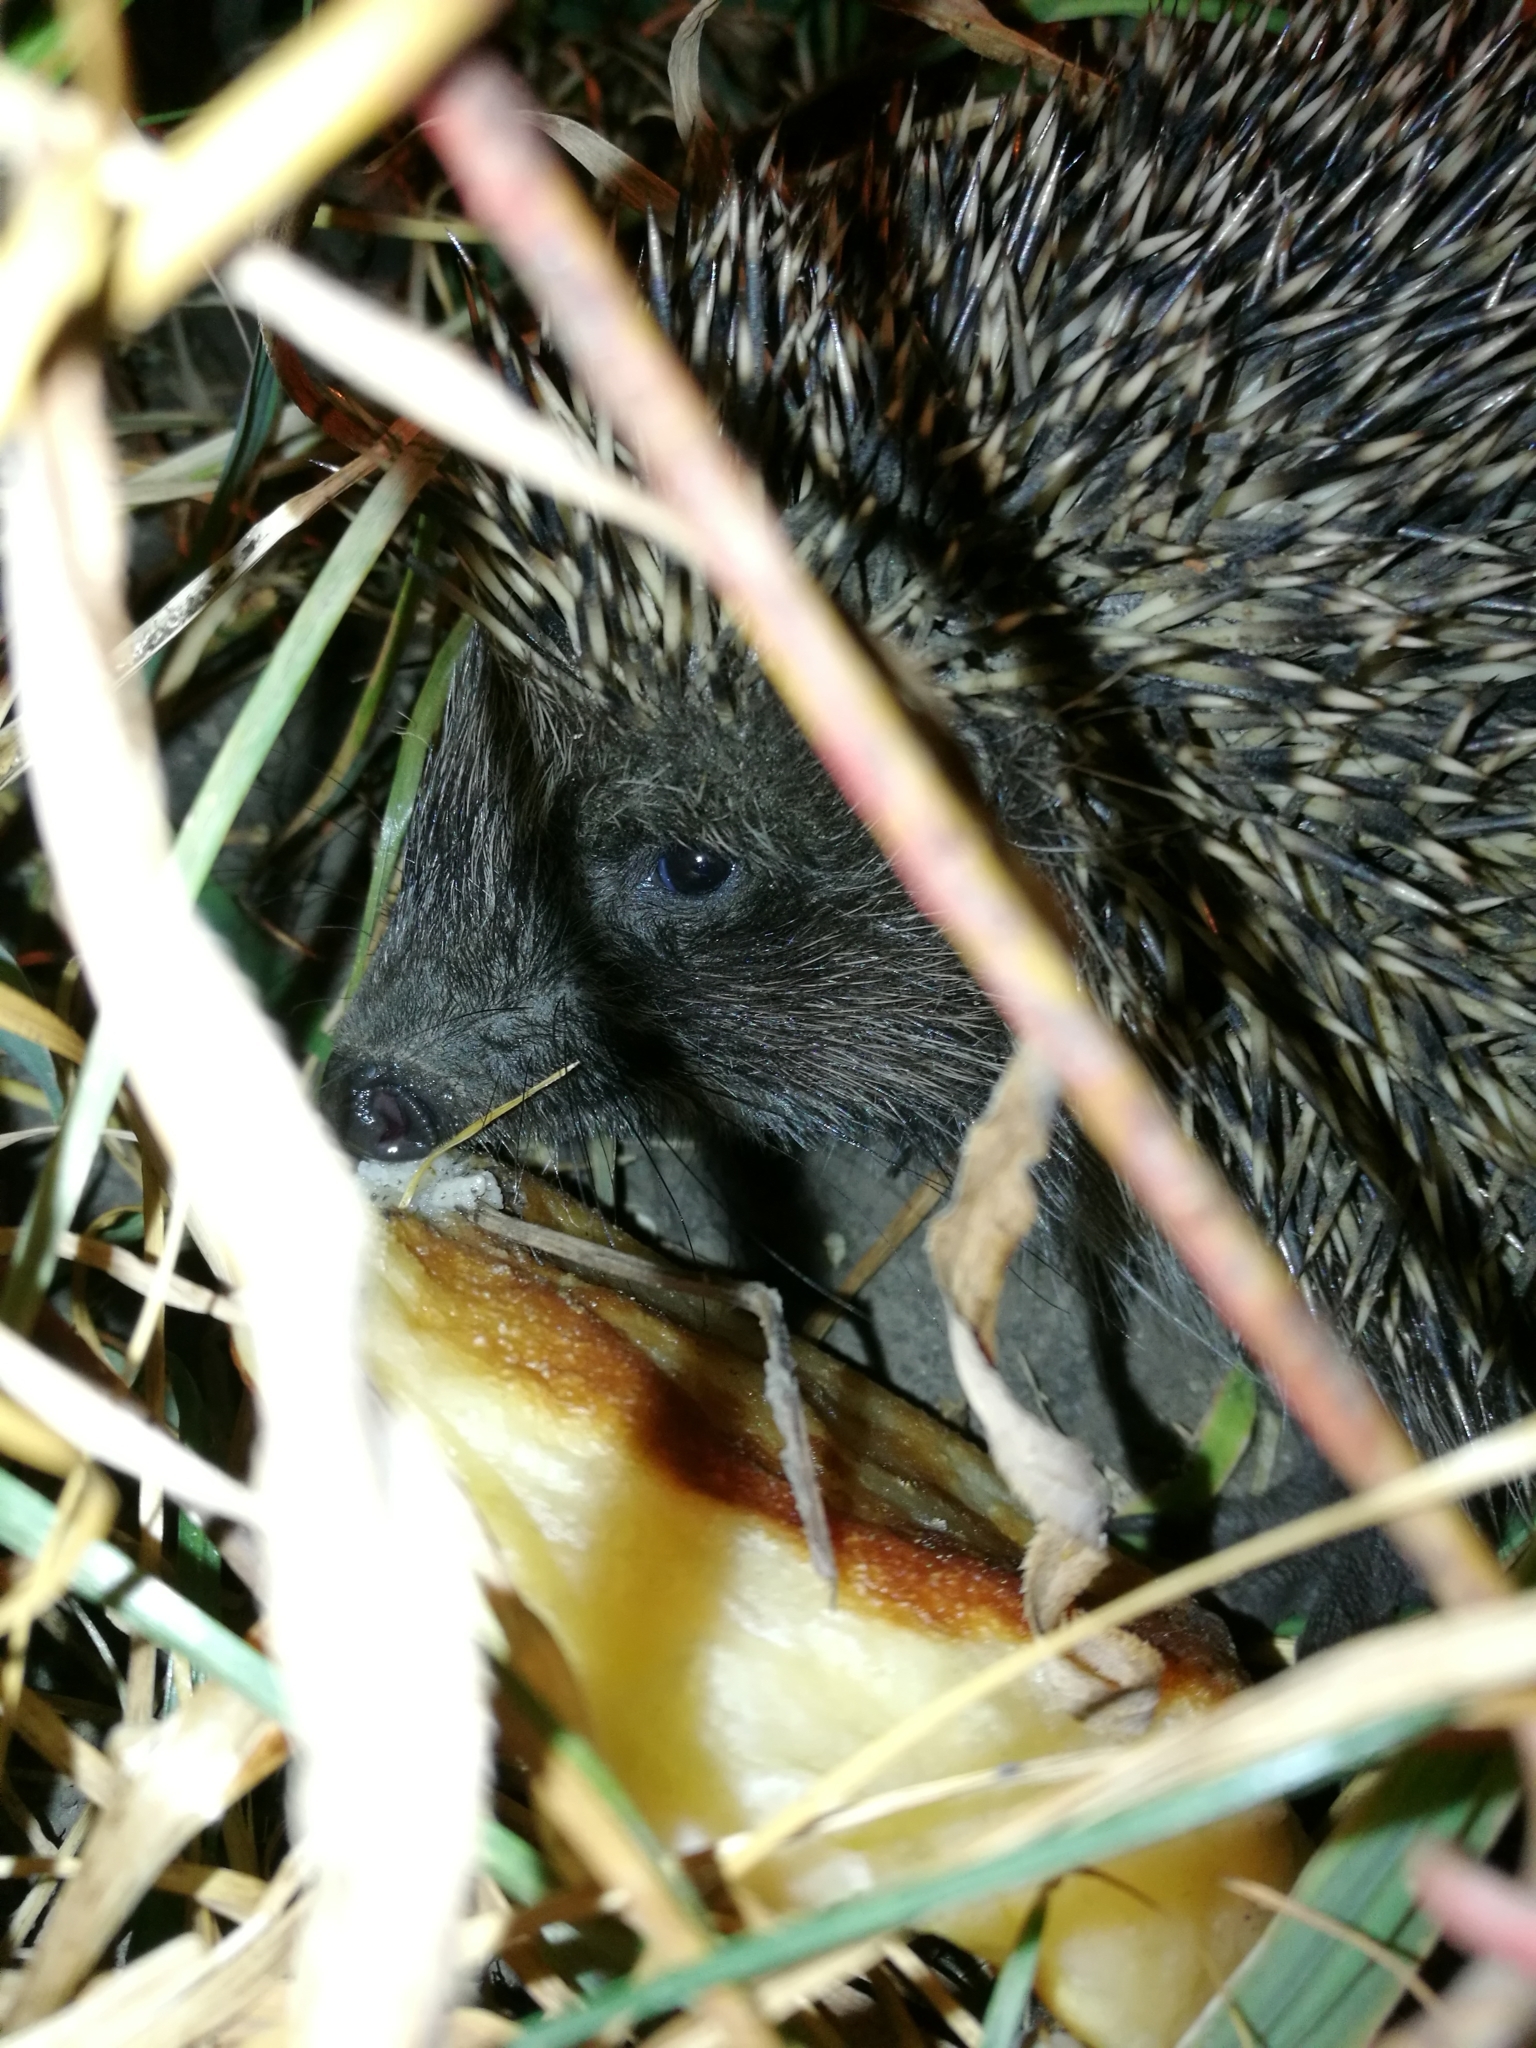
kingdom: Animalia
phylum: Chordata
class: Mammalia
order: Erinaceomorpha
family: Erinaceidae
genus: Erinaceus
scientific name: Erinaceus roumanicus
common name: Northern white-breasted hedgehog
